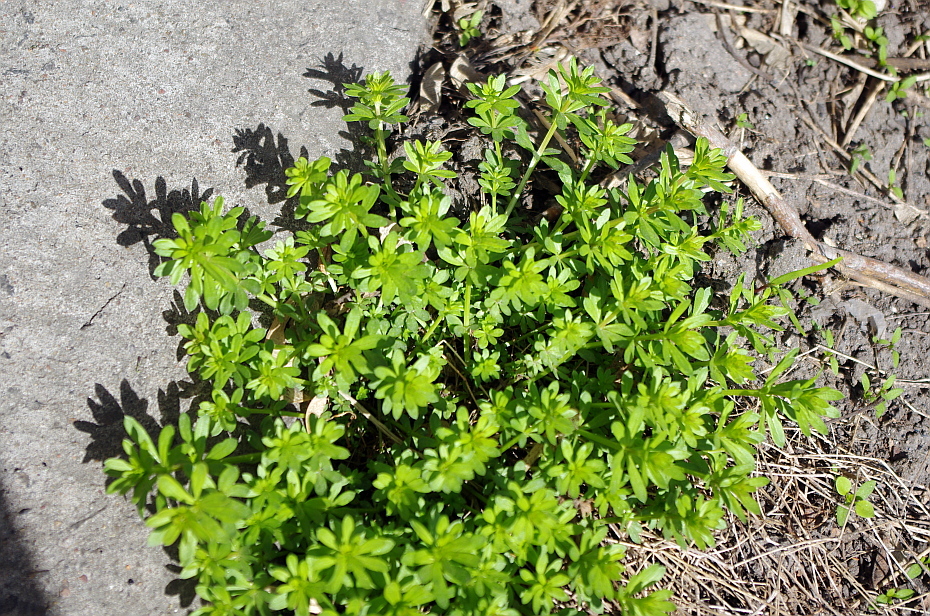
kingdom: Plantae
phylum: Tracheophyta
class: Magnoliopsida
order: Gentianales
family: Rubiaceae
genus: Galium
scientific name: Galium mollugo
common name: Hedge bedstraw
